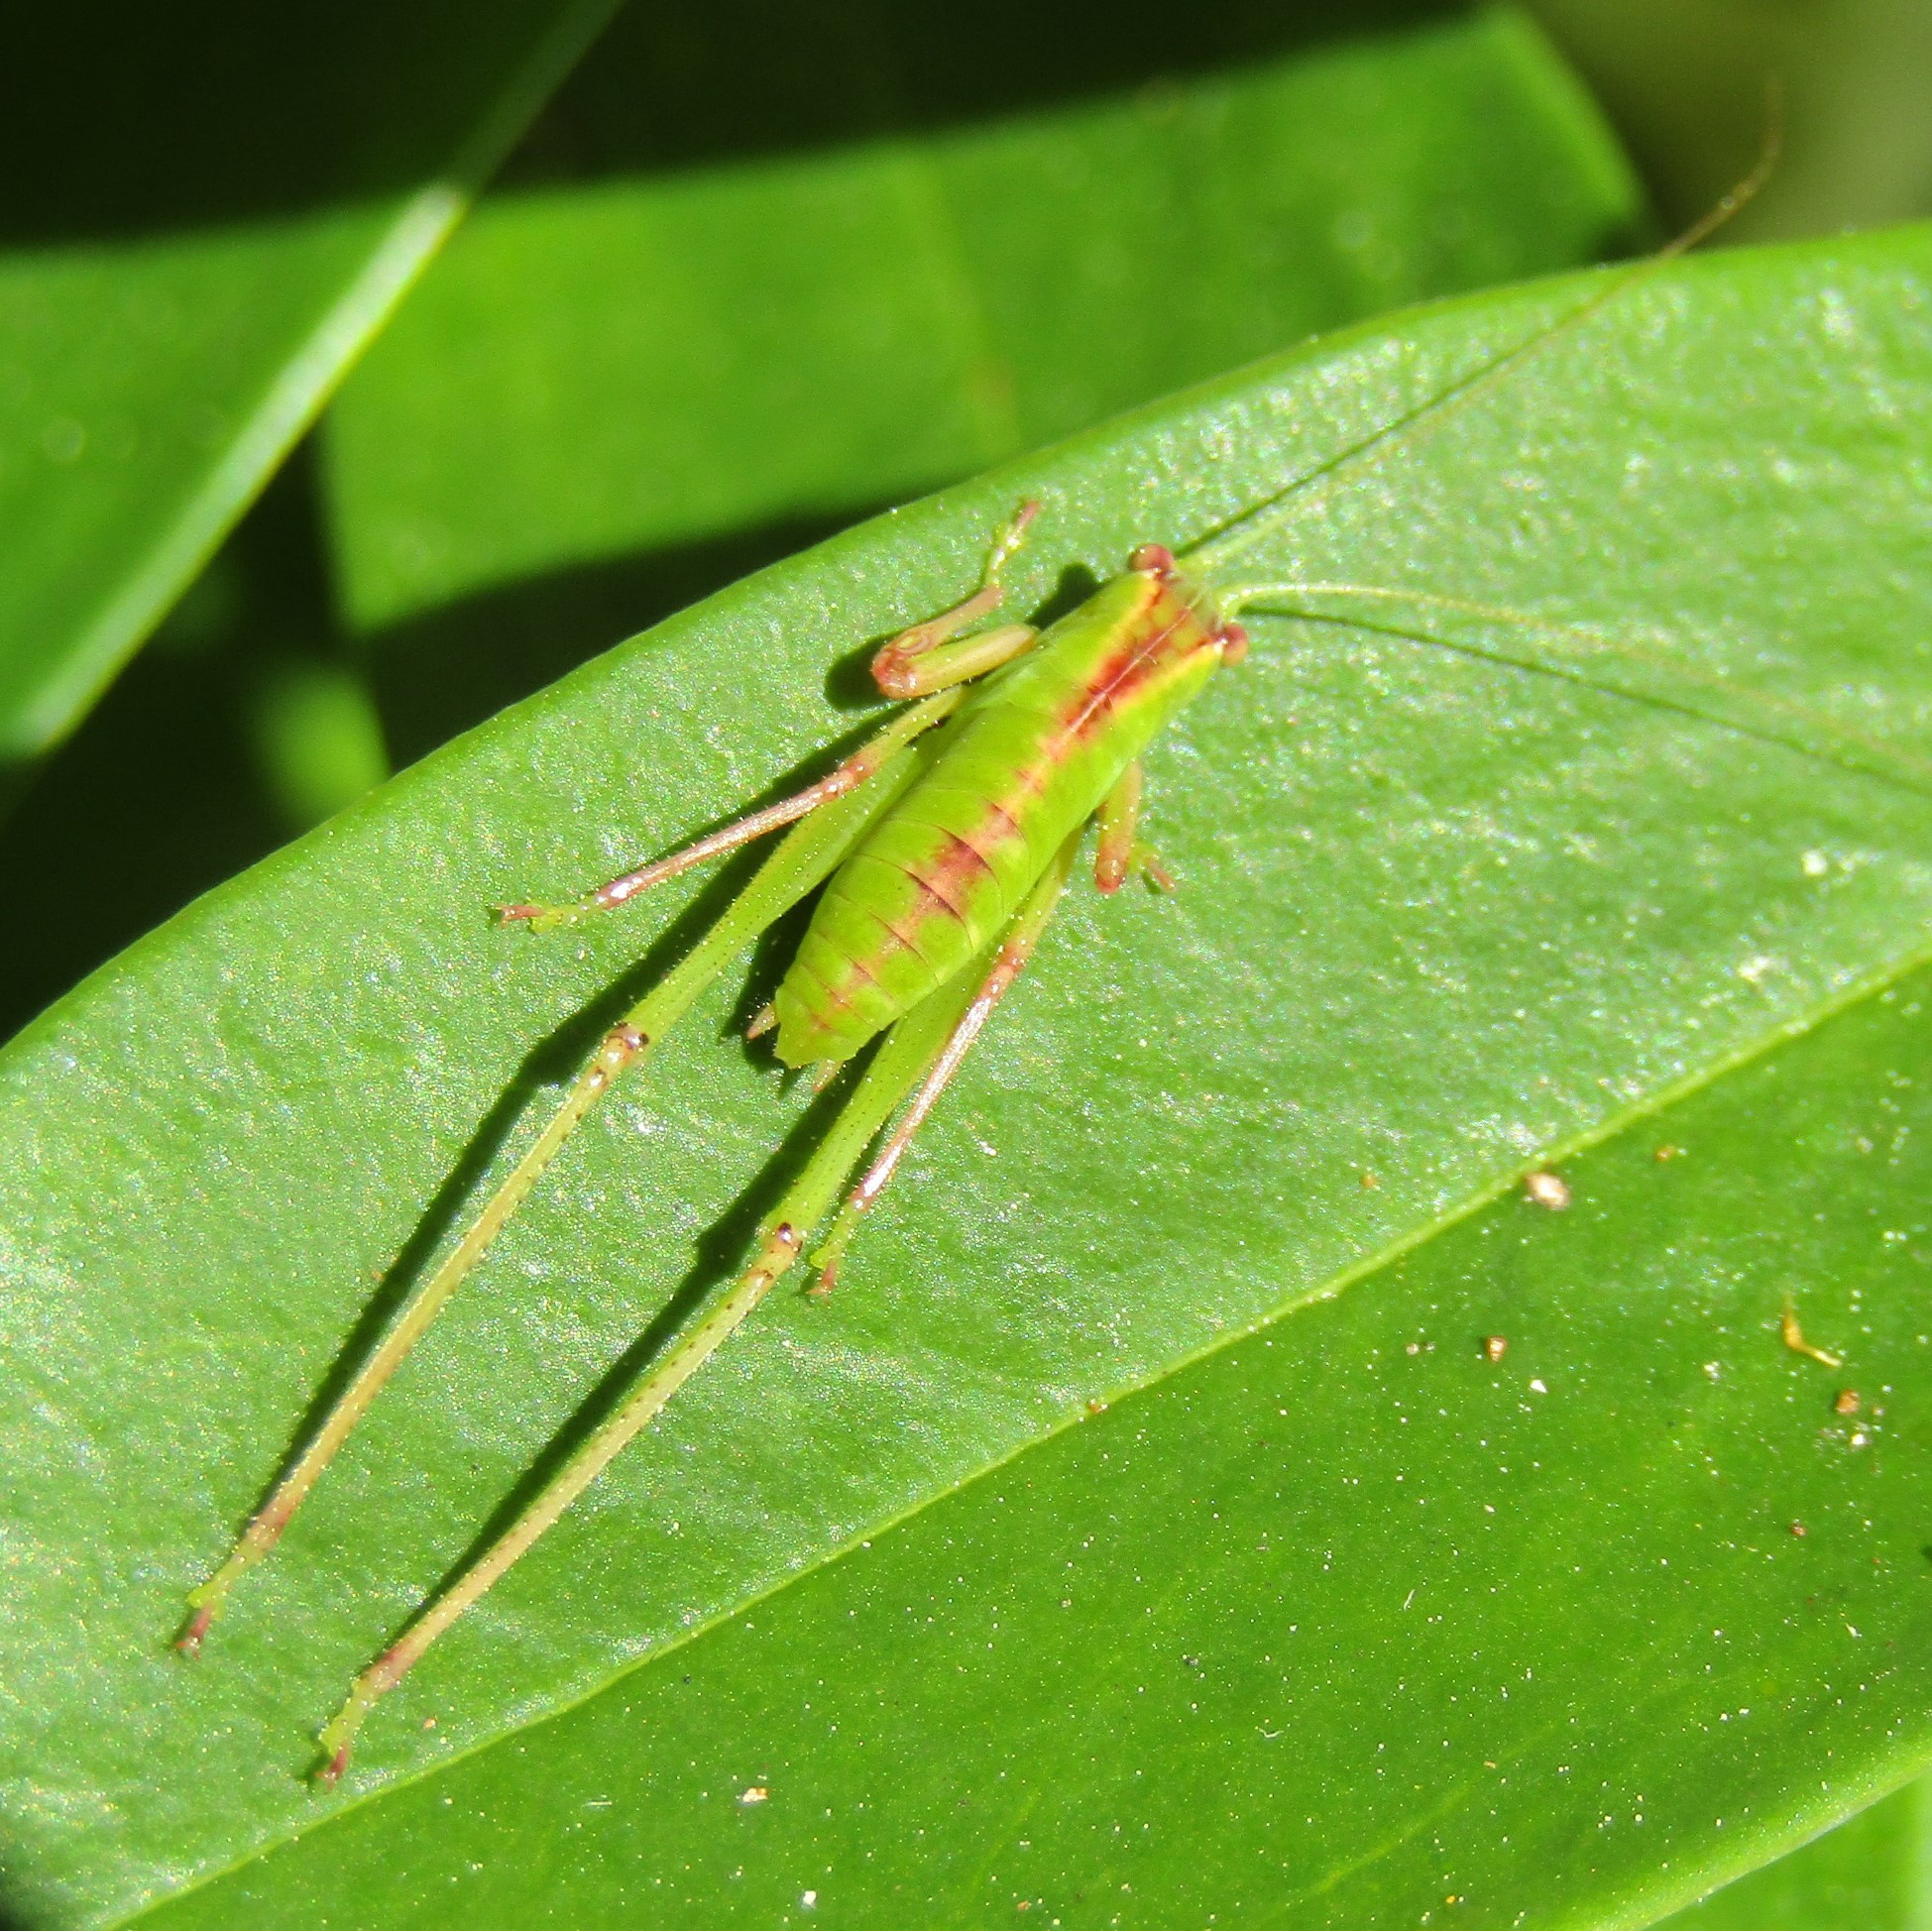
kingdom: Animalia
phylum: Arthropoda
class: Insecta
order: Orthoptera
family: Tettigoniidae
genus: Caedicia
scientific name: Caedicia simplex
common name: Common garden katydid
